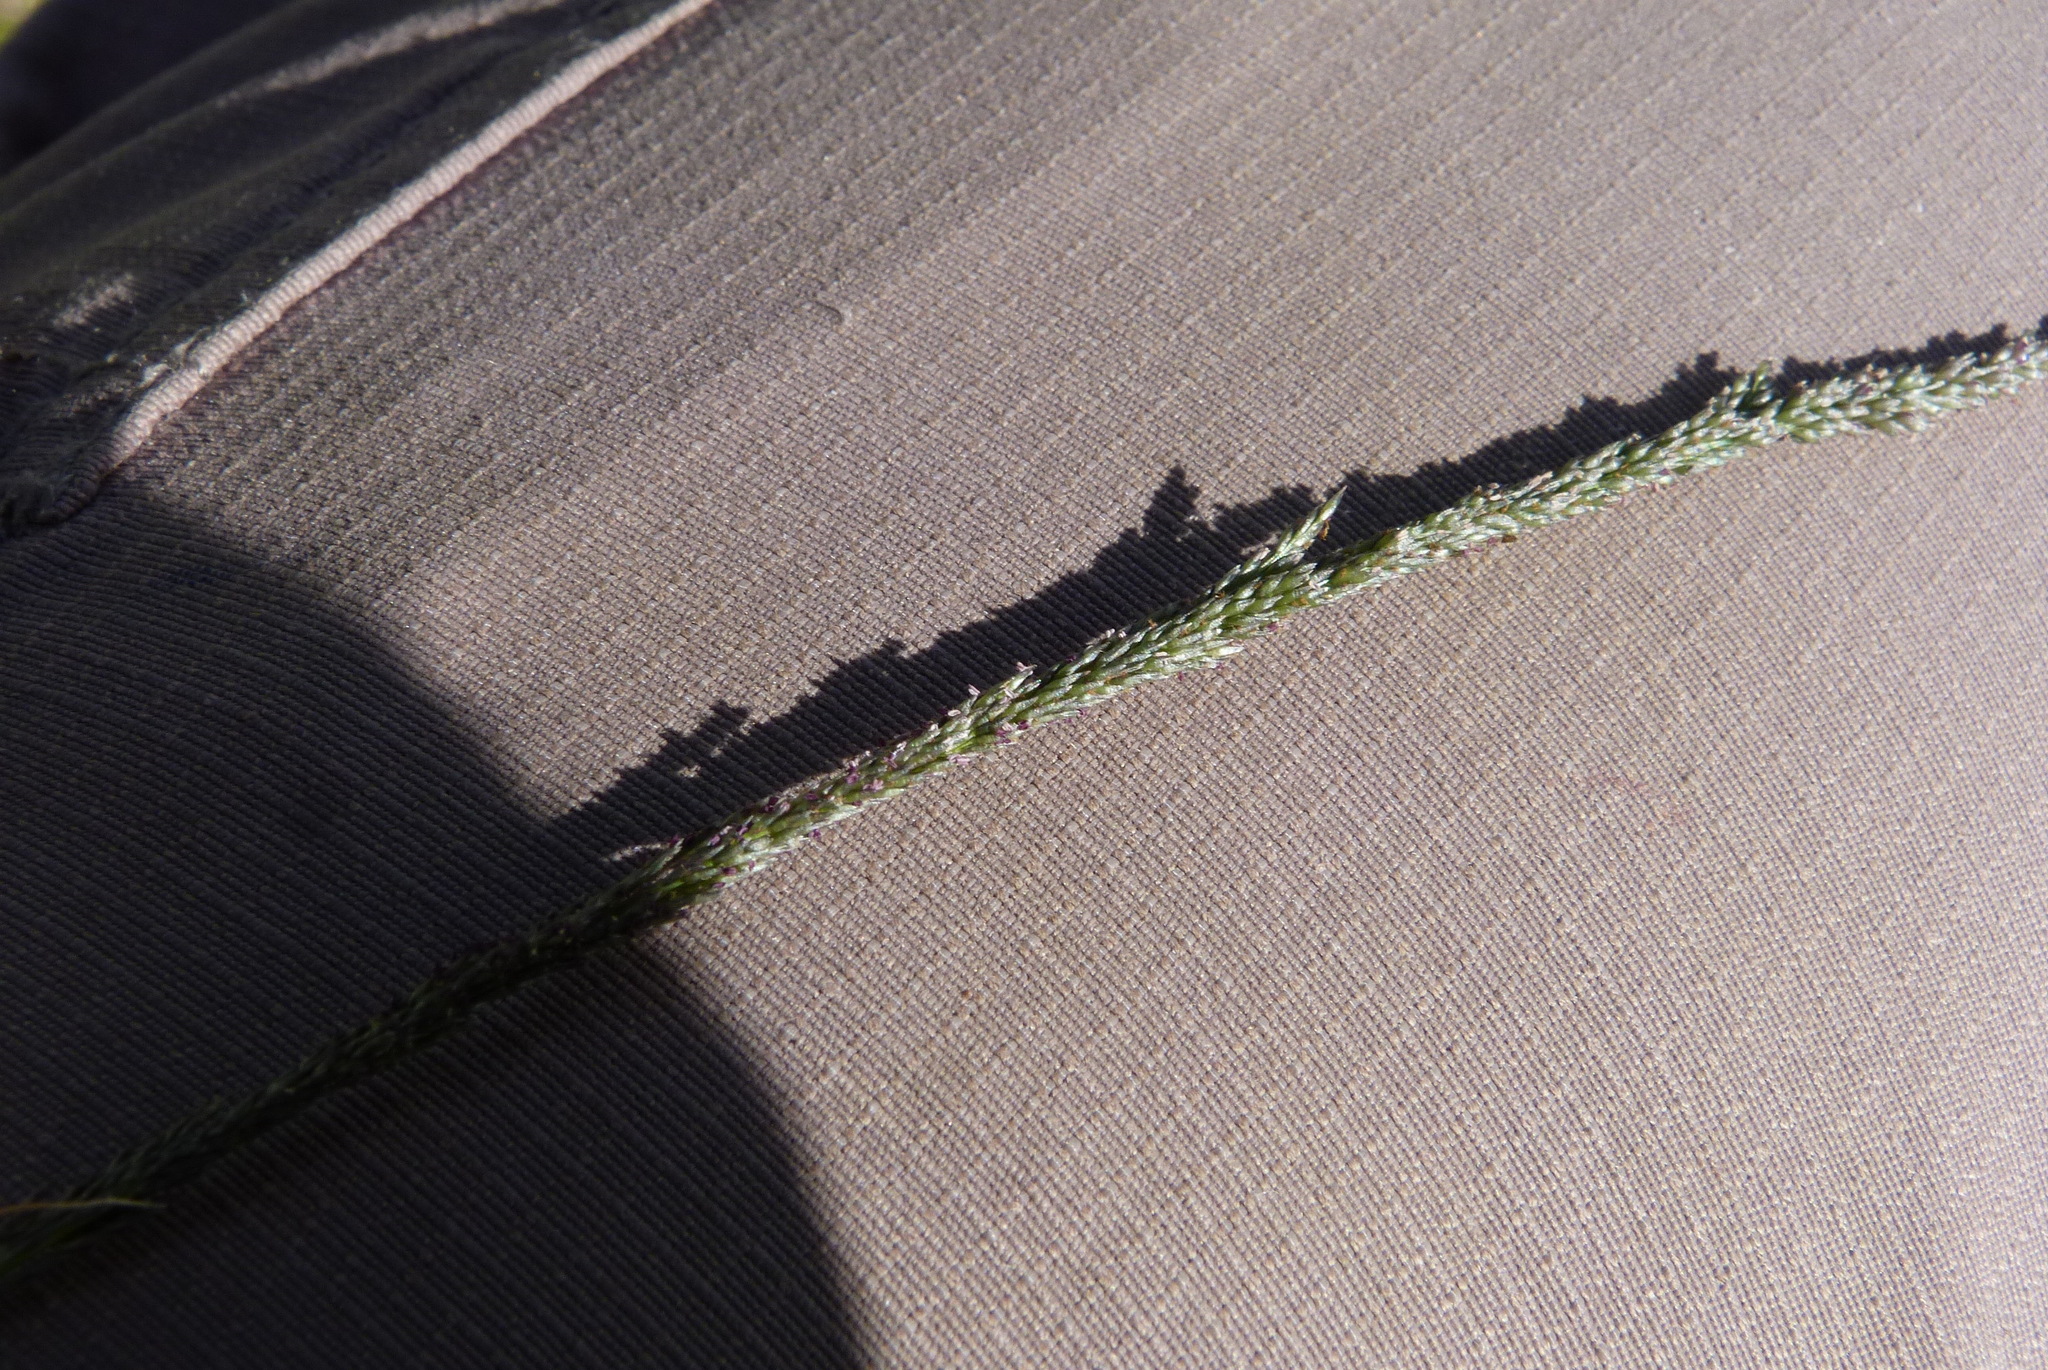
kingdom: Plantae
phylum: Tracheophyta
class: Liliopsida
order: Poales
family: Poaceae
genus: Sporobolus
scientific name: Sporobolus africanus
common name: African dropseed
